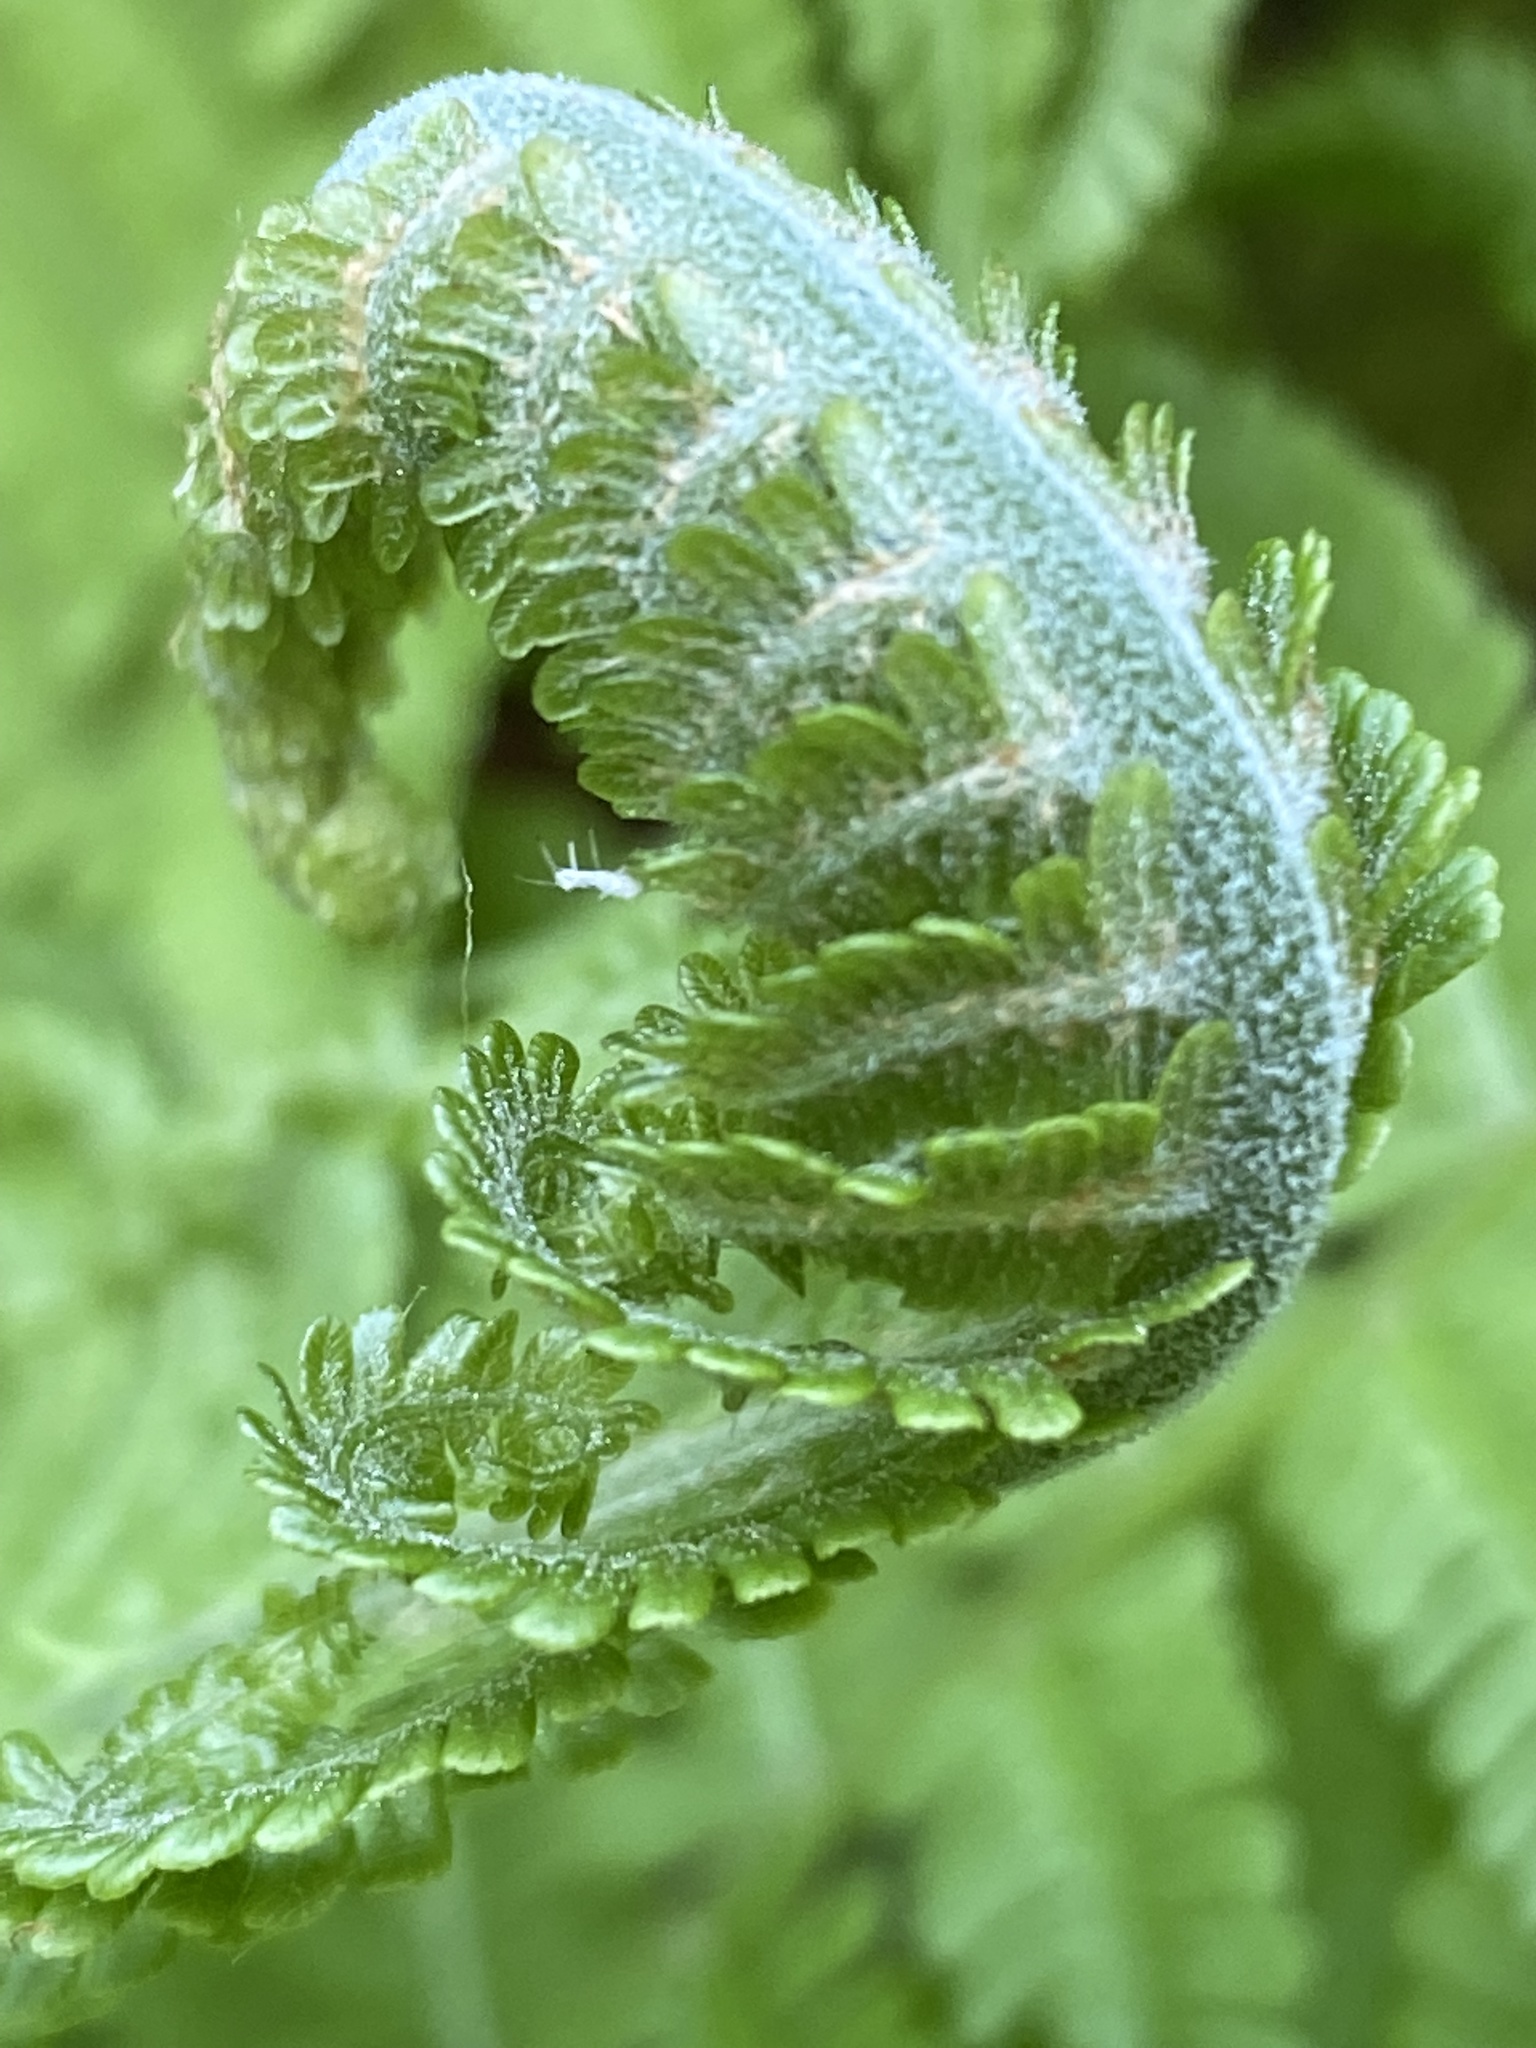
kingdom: Plantae
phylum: Tracheophyta
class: Polypodiopsida
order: Polypodiales
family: Onocleaceae
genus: Matteuccia
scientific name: Matteuccia struthiopteris
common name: Ostrich fern
